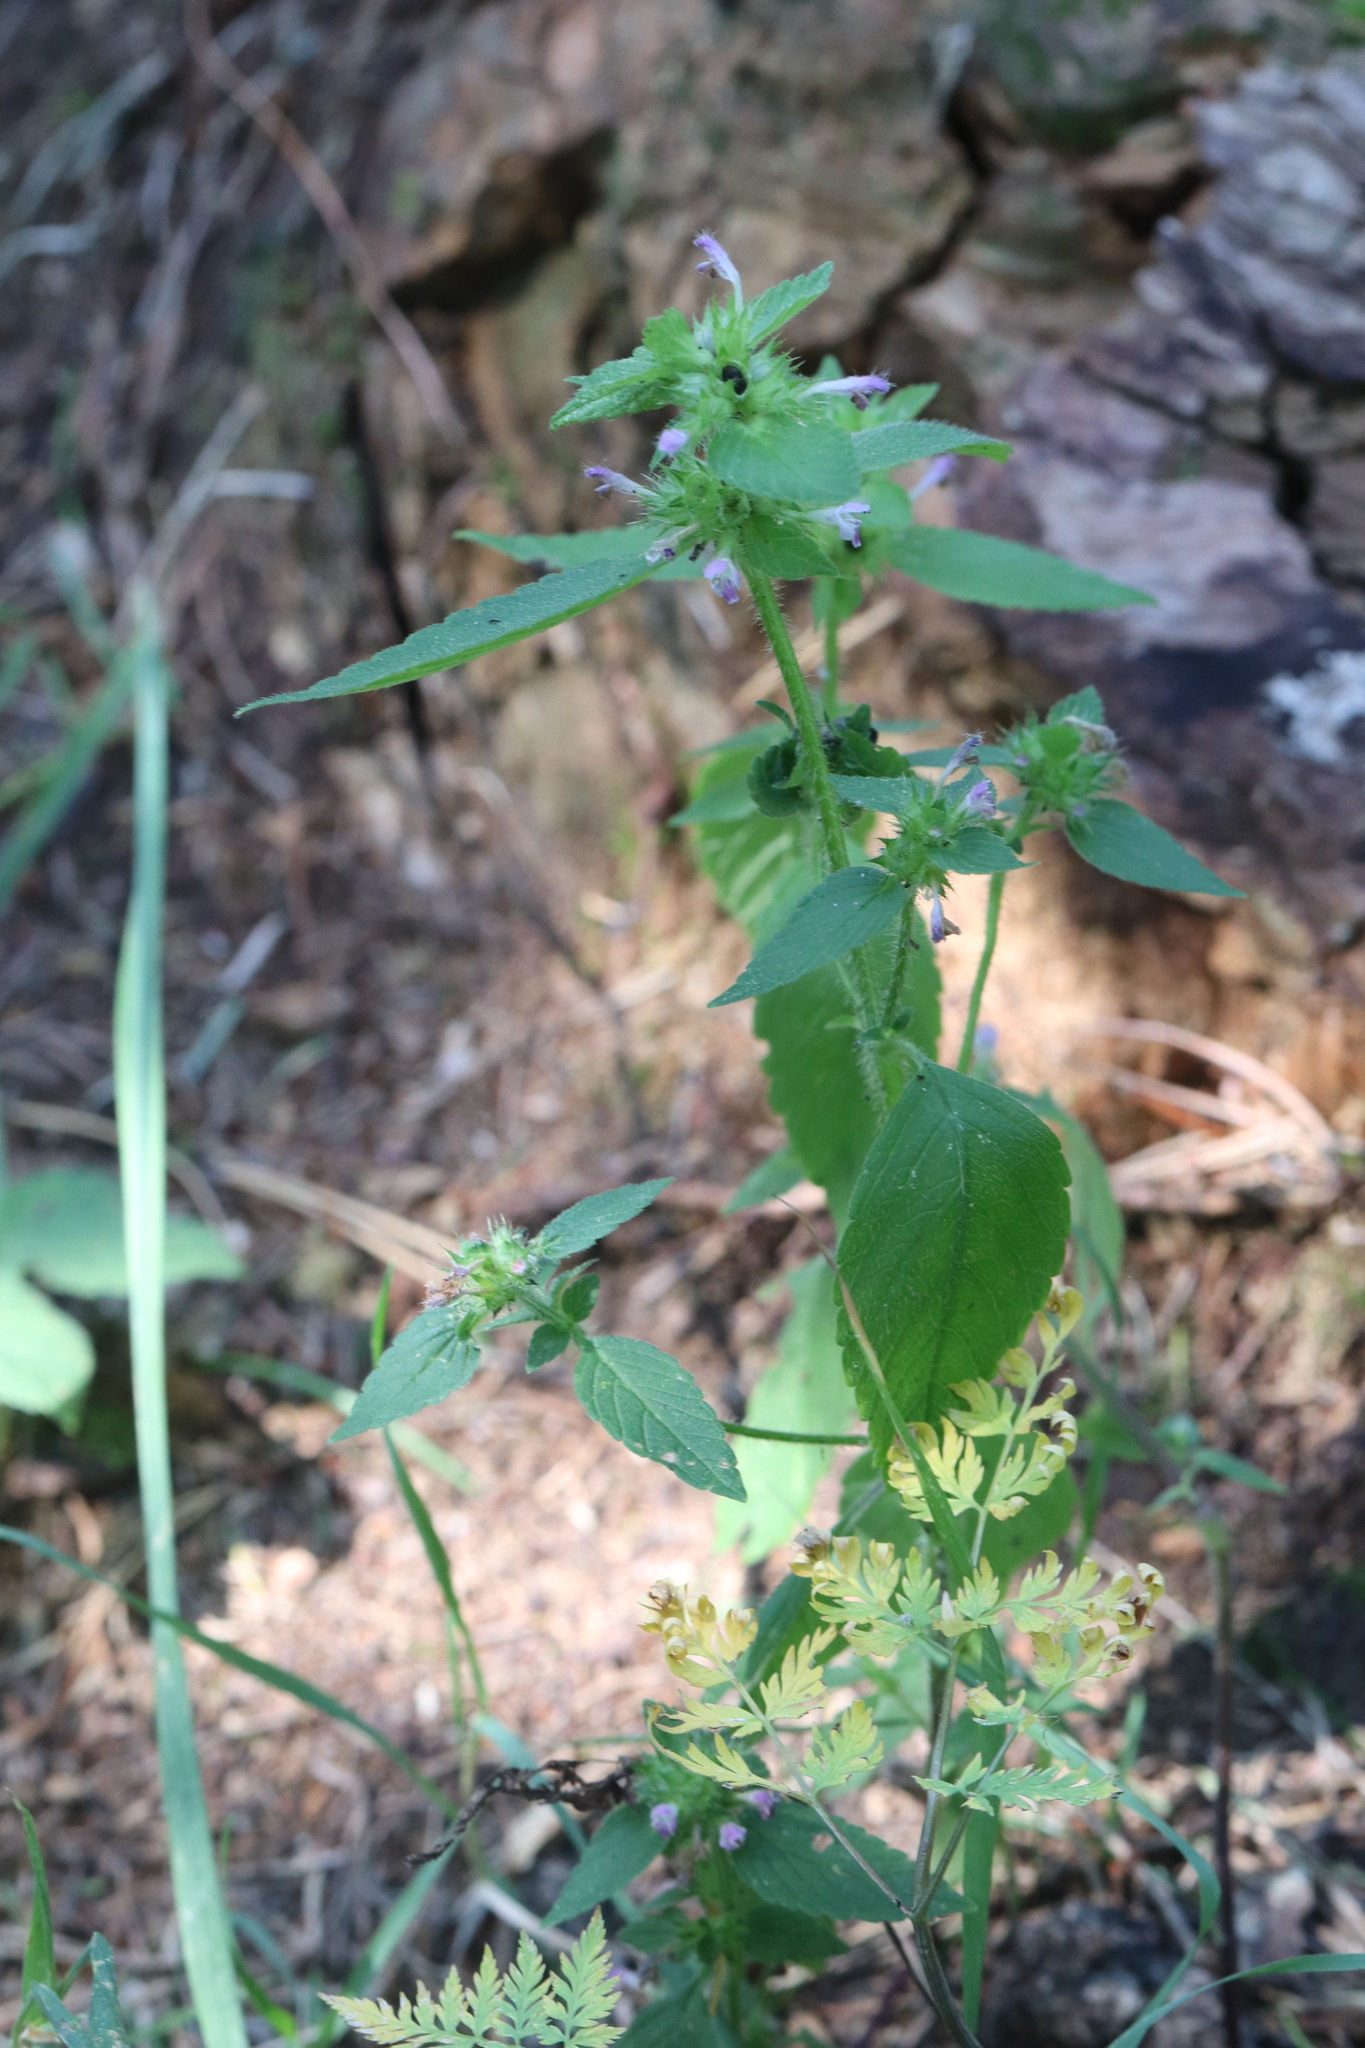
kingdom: Plantae
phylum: Tracheophyta
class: Magnoliopsida
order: Lamiales
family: Lamiaceae
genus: Galeopsis
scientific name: Galeopsis bifida
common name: Bifid hemp-nettle
